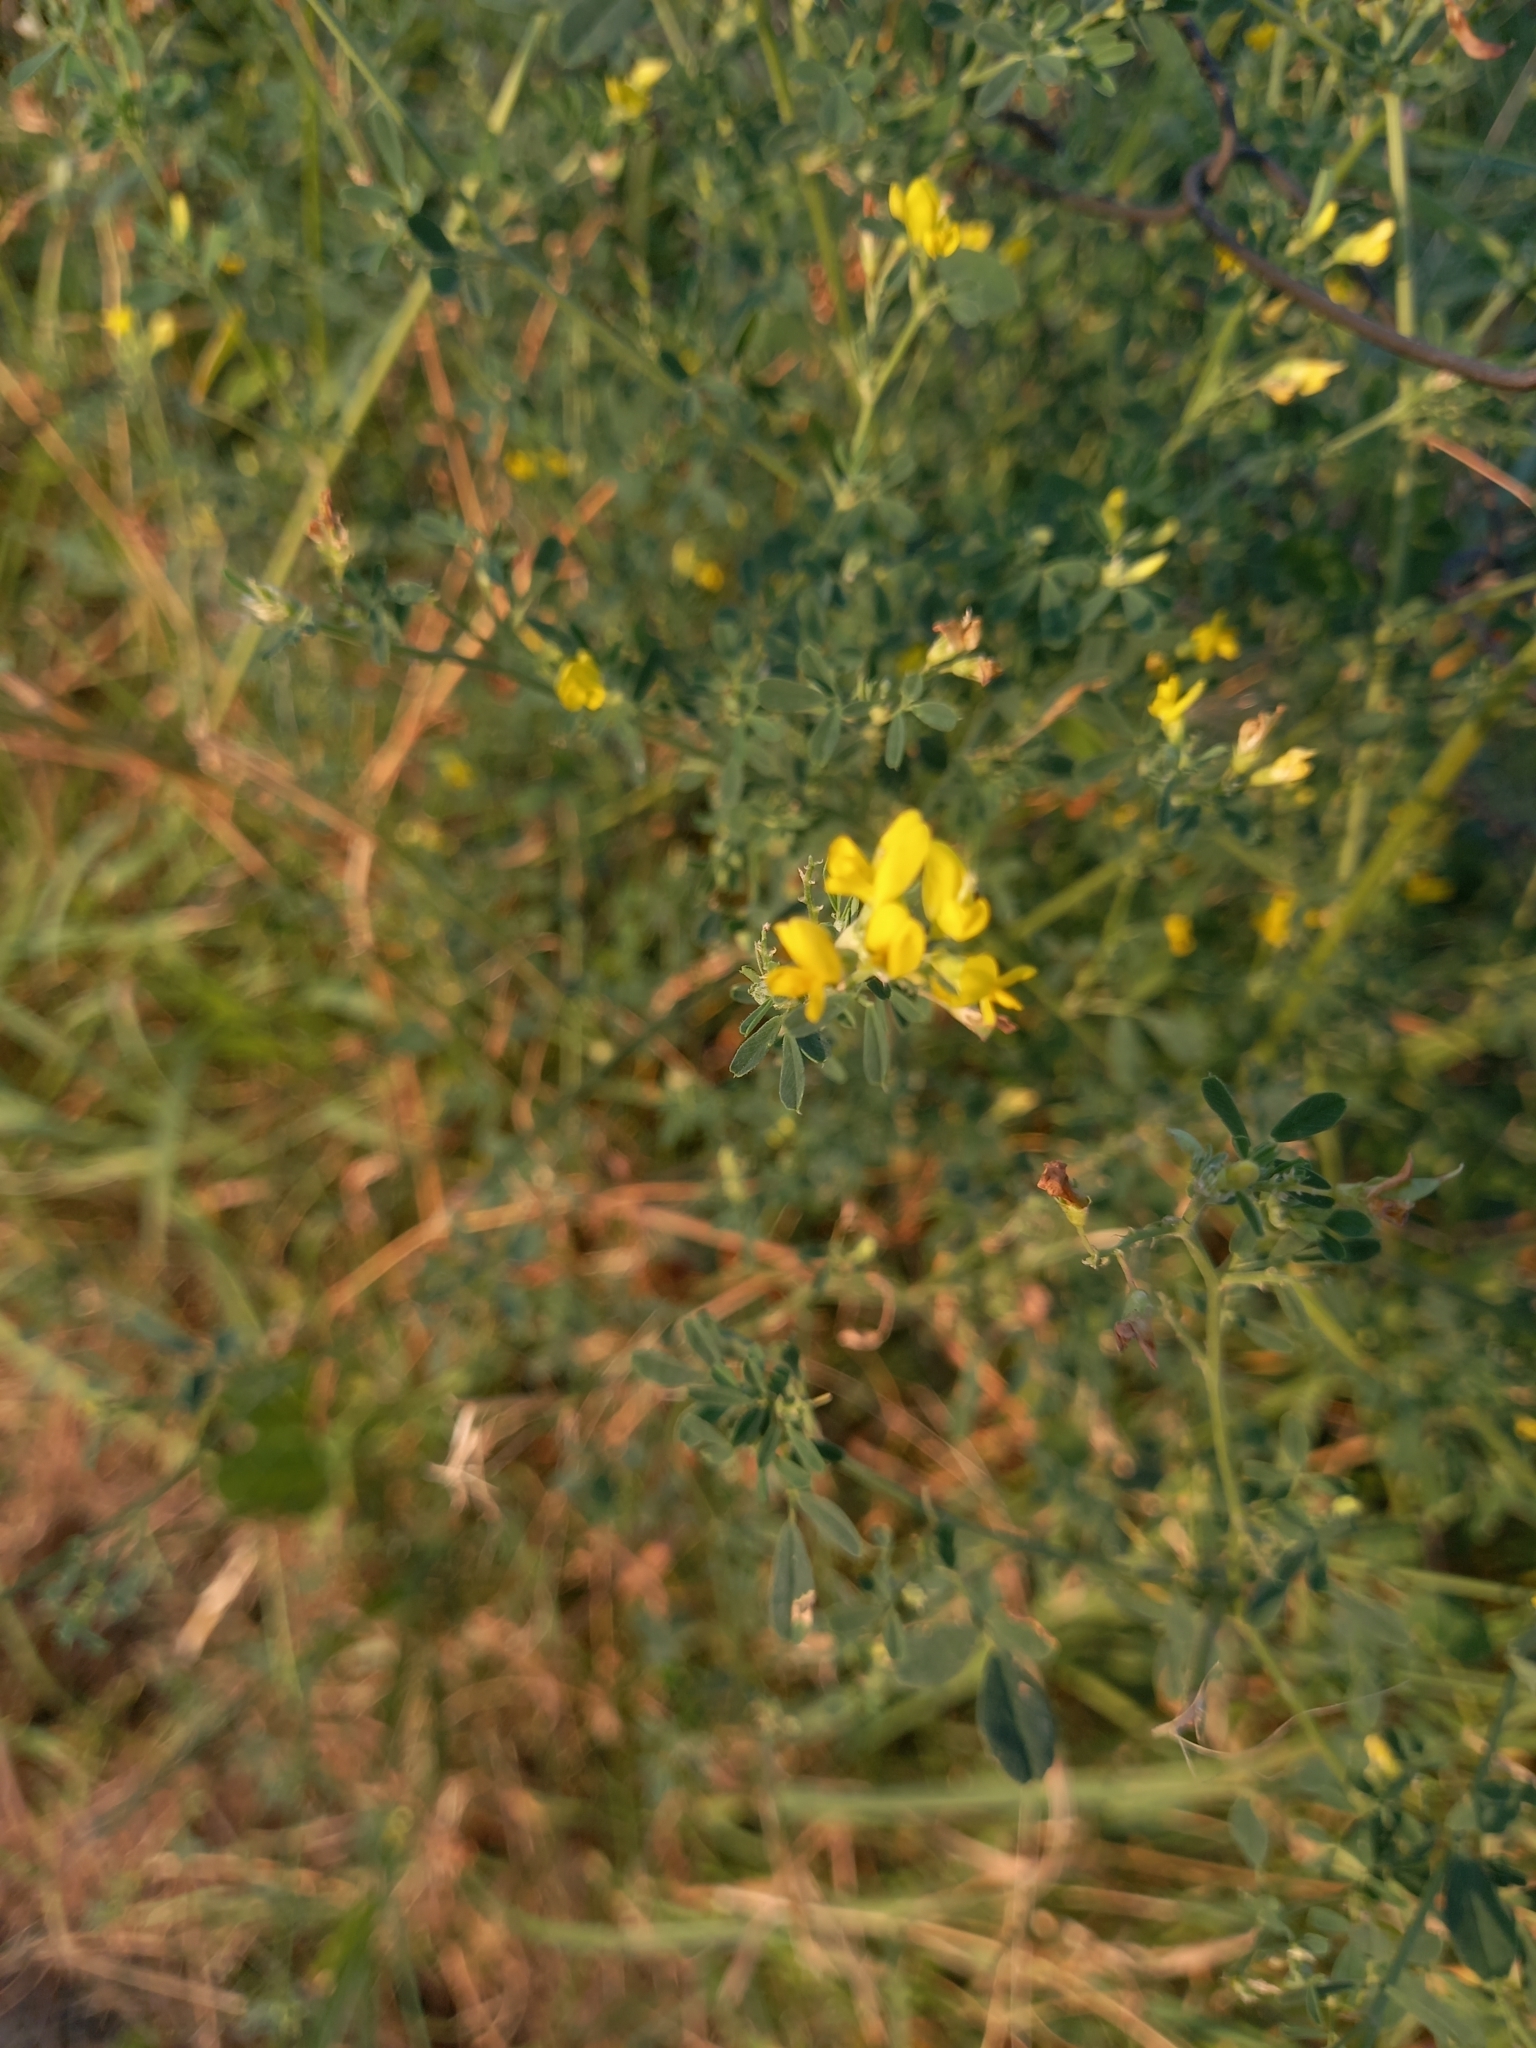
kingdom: Plantae
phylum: Tracheophyta
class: Magnoliopsida
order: Fabales
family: Fabaceae
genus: Medicago
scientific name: Medicago falcata
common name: Sickle medick
